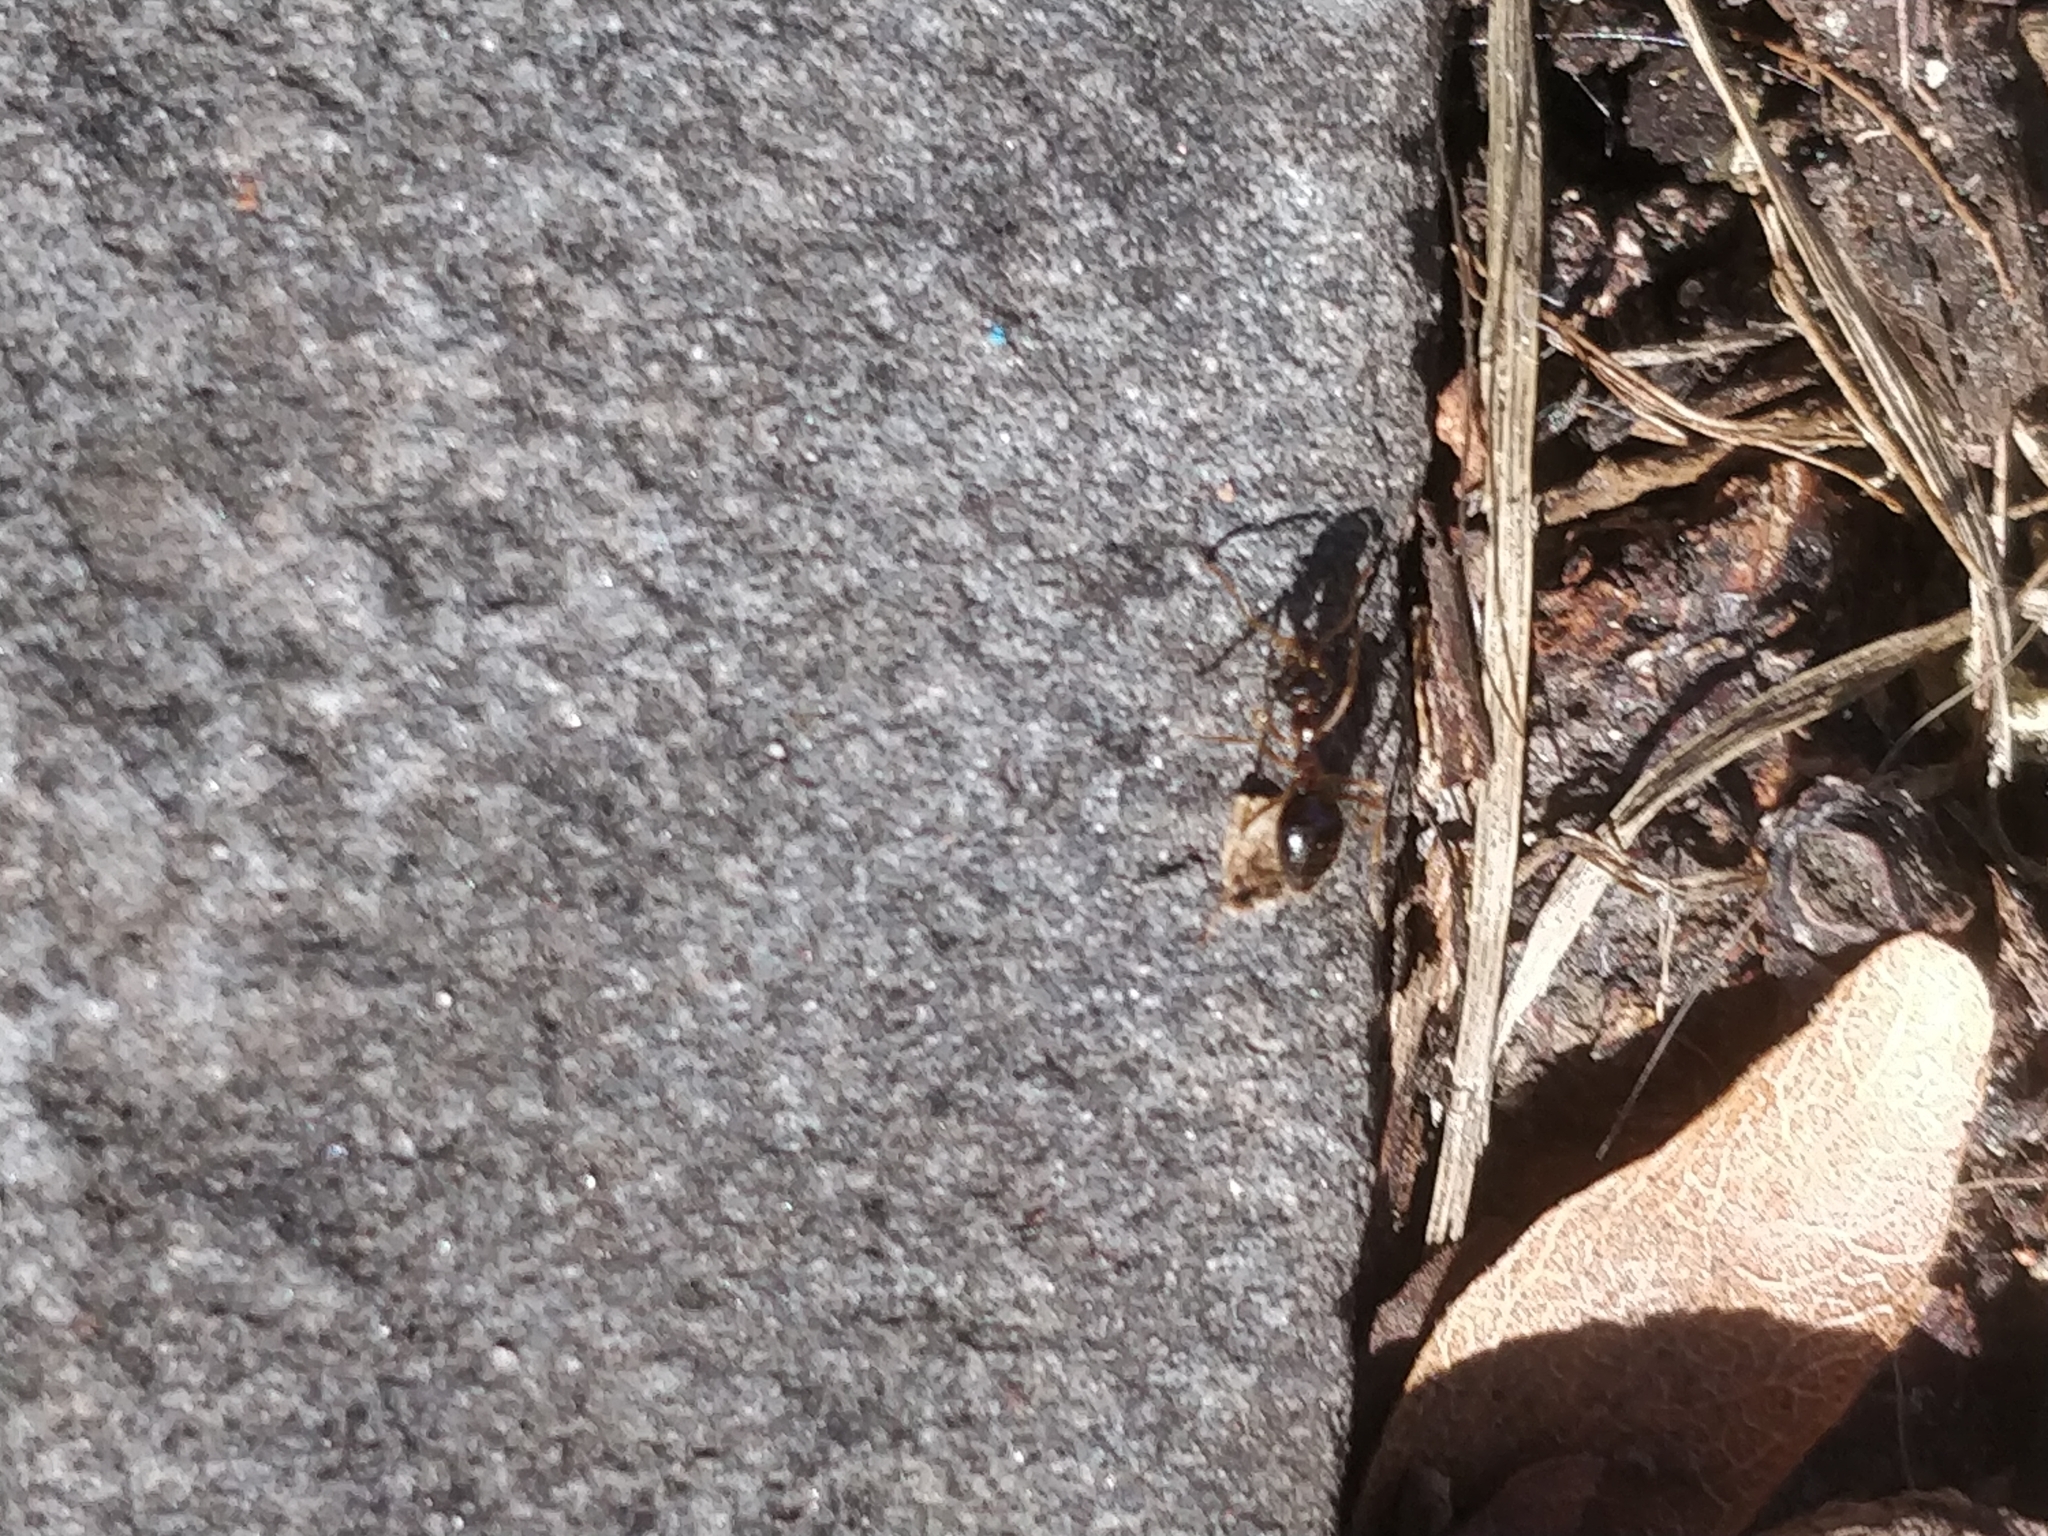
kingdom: Animalia
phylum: Arthropoda
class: Insecta
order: Hymenoptera
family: Formicidae
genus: Prenolepis
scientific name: Prenolepis imparis
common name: Small honey ant
